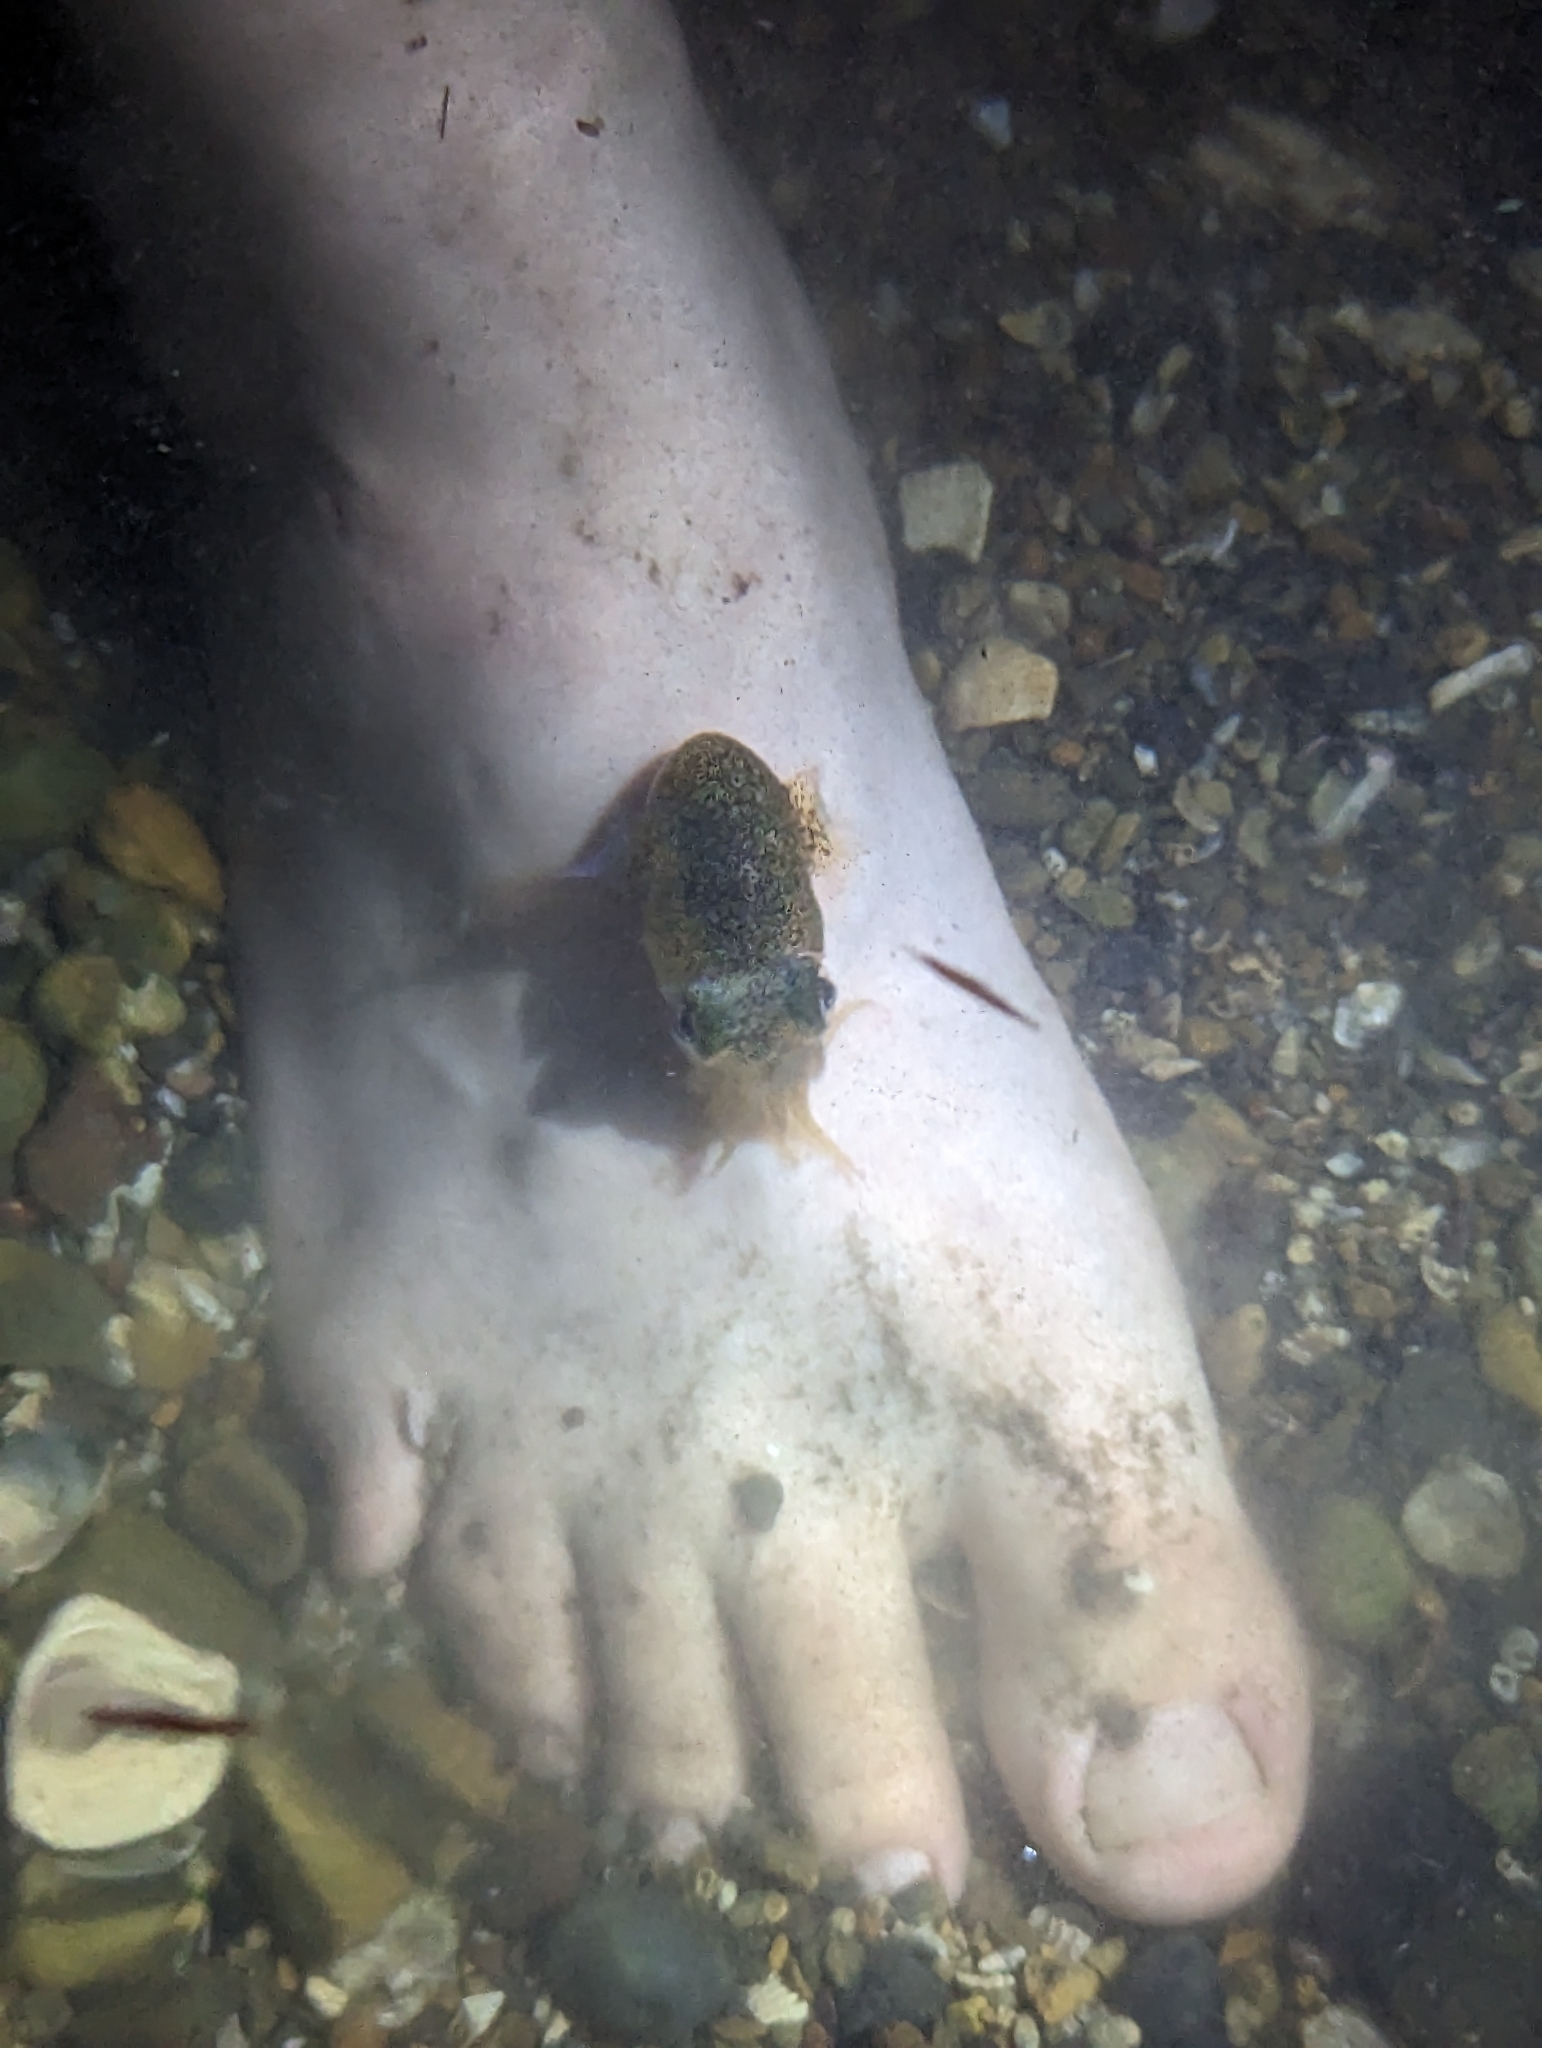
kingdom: Animalia
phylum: Mollusca
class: Cephalopoda
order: Sepiida
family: Sepiolidae
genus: Euprymna
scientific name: Euprymna tasmanica
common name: Southern bobtail squid
